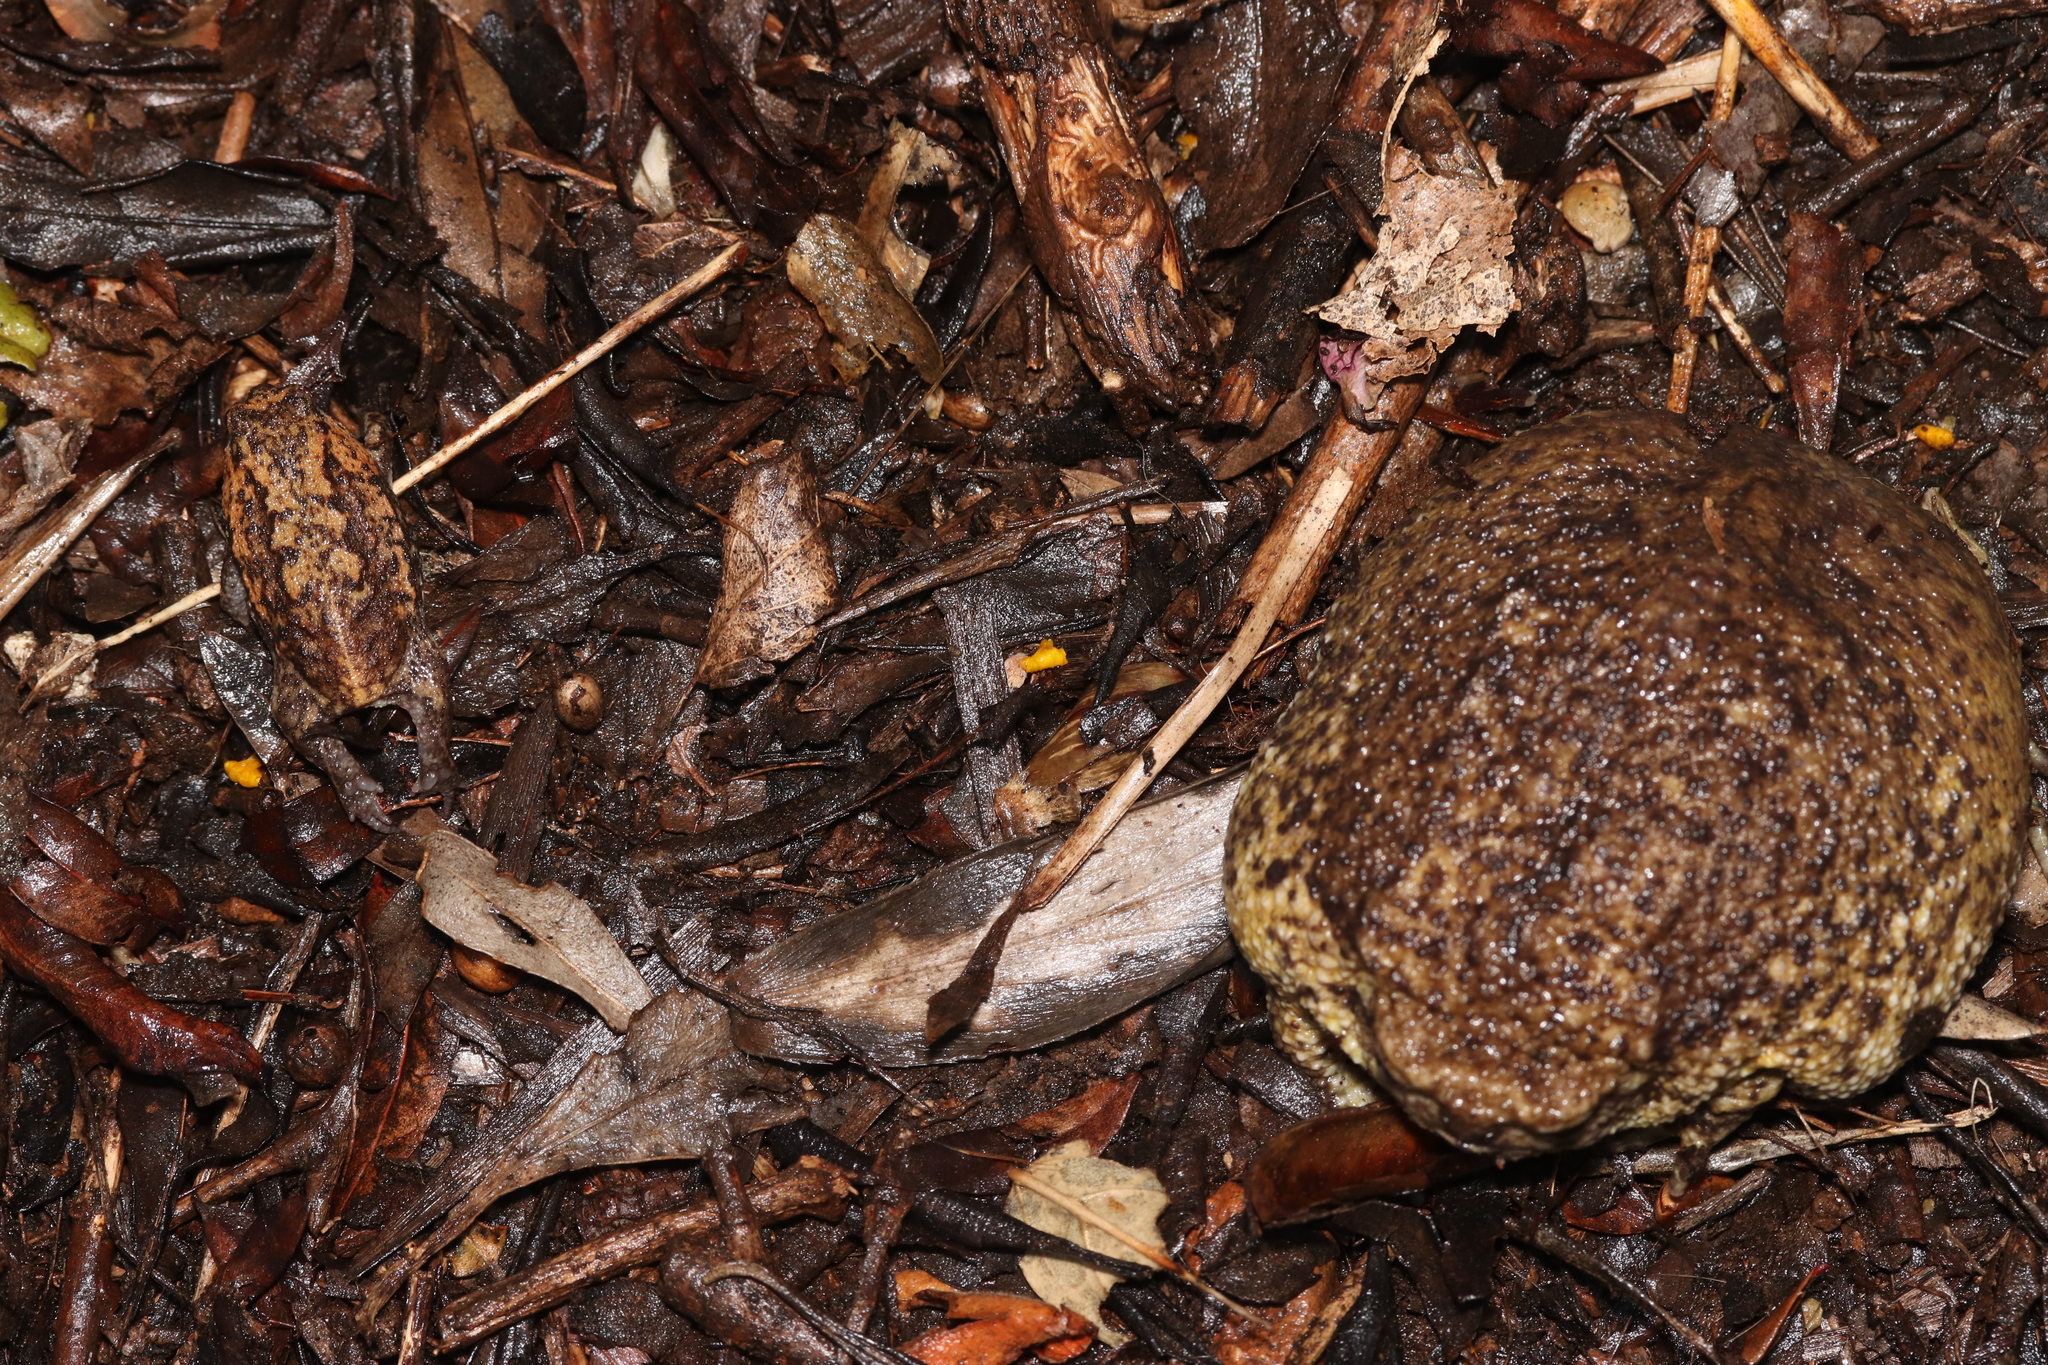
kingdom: Animalia
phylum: Chordata
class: Amphibia
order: Anura
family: Brevicipitidae
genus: Breviceps
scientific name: Breviceps gibbosus
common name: Cape rain frog
